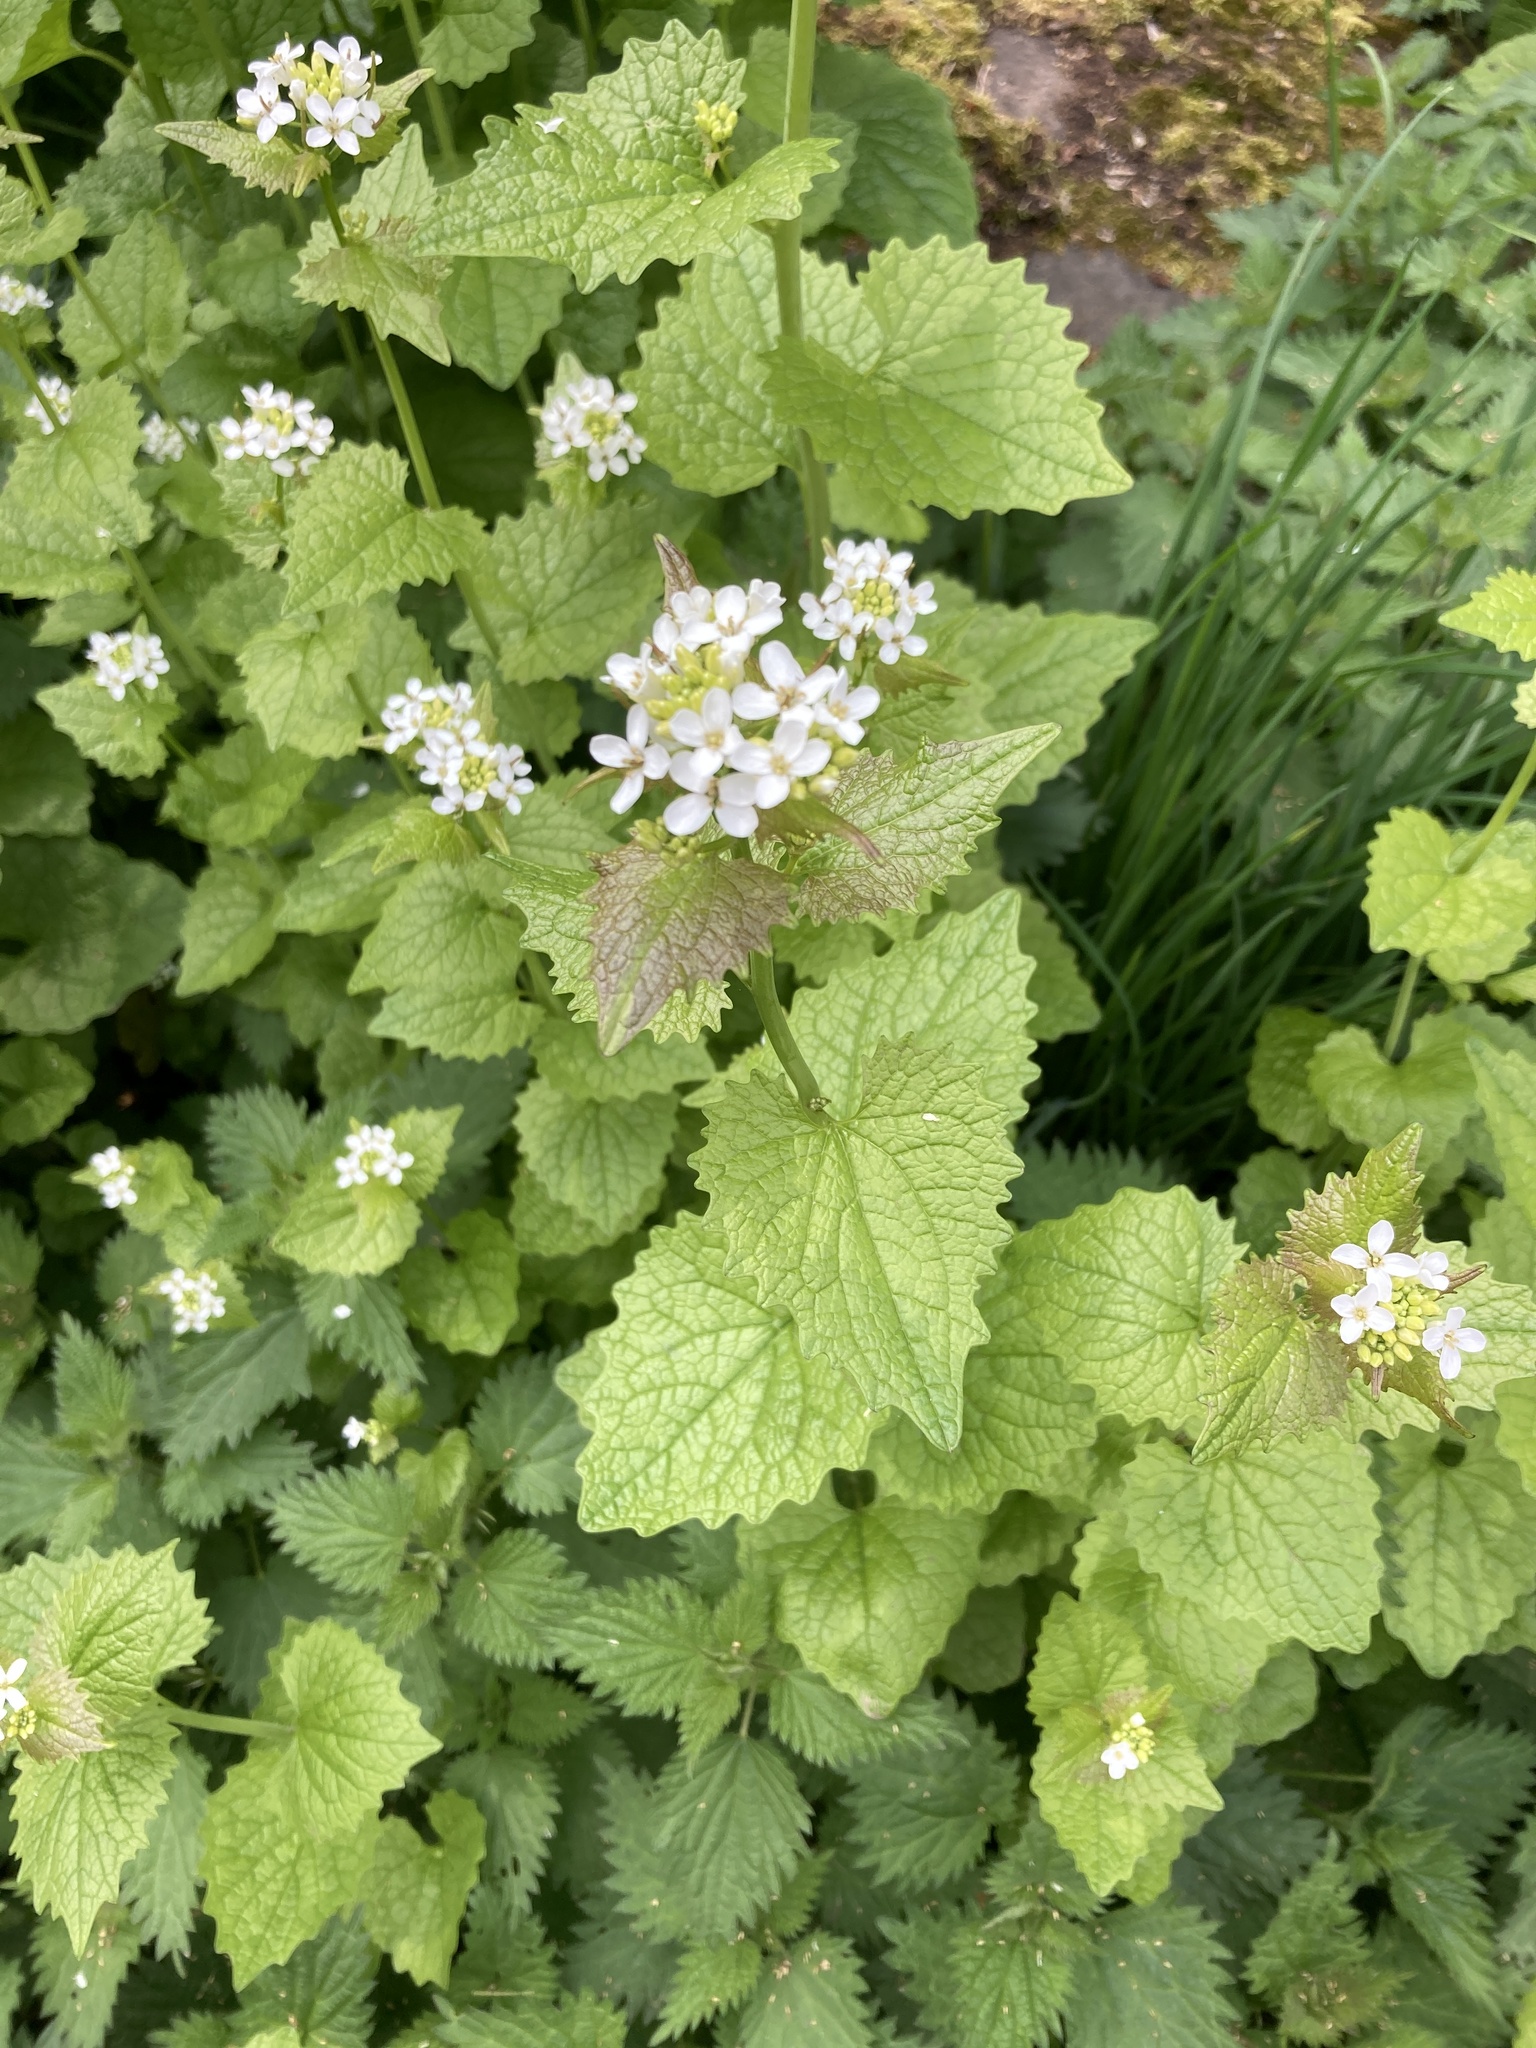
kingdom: Plantae
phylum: Tracheophyta
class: Magnoliopsida
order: Brassicales
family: Brassicaceae
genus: Alliaria
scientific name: Alliaria petiolata
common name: Garlic mustard
